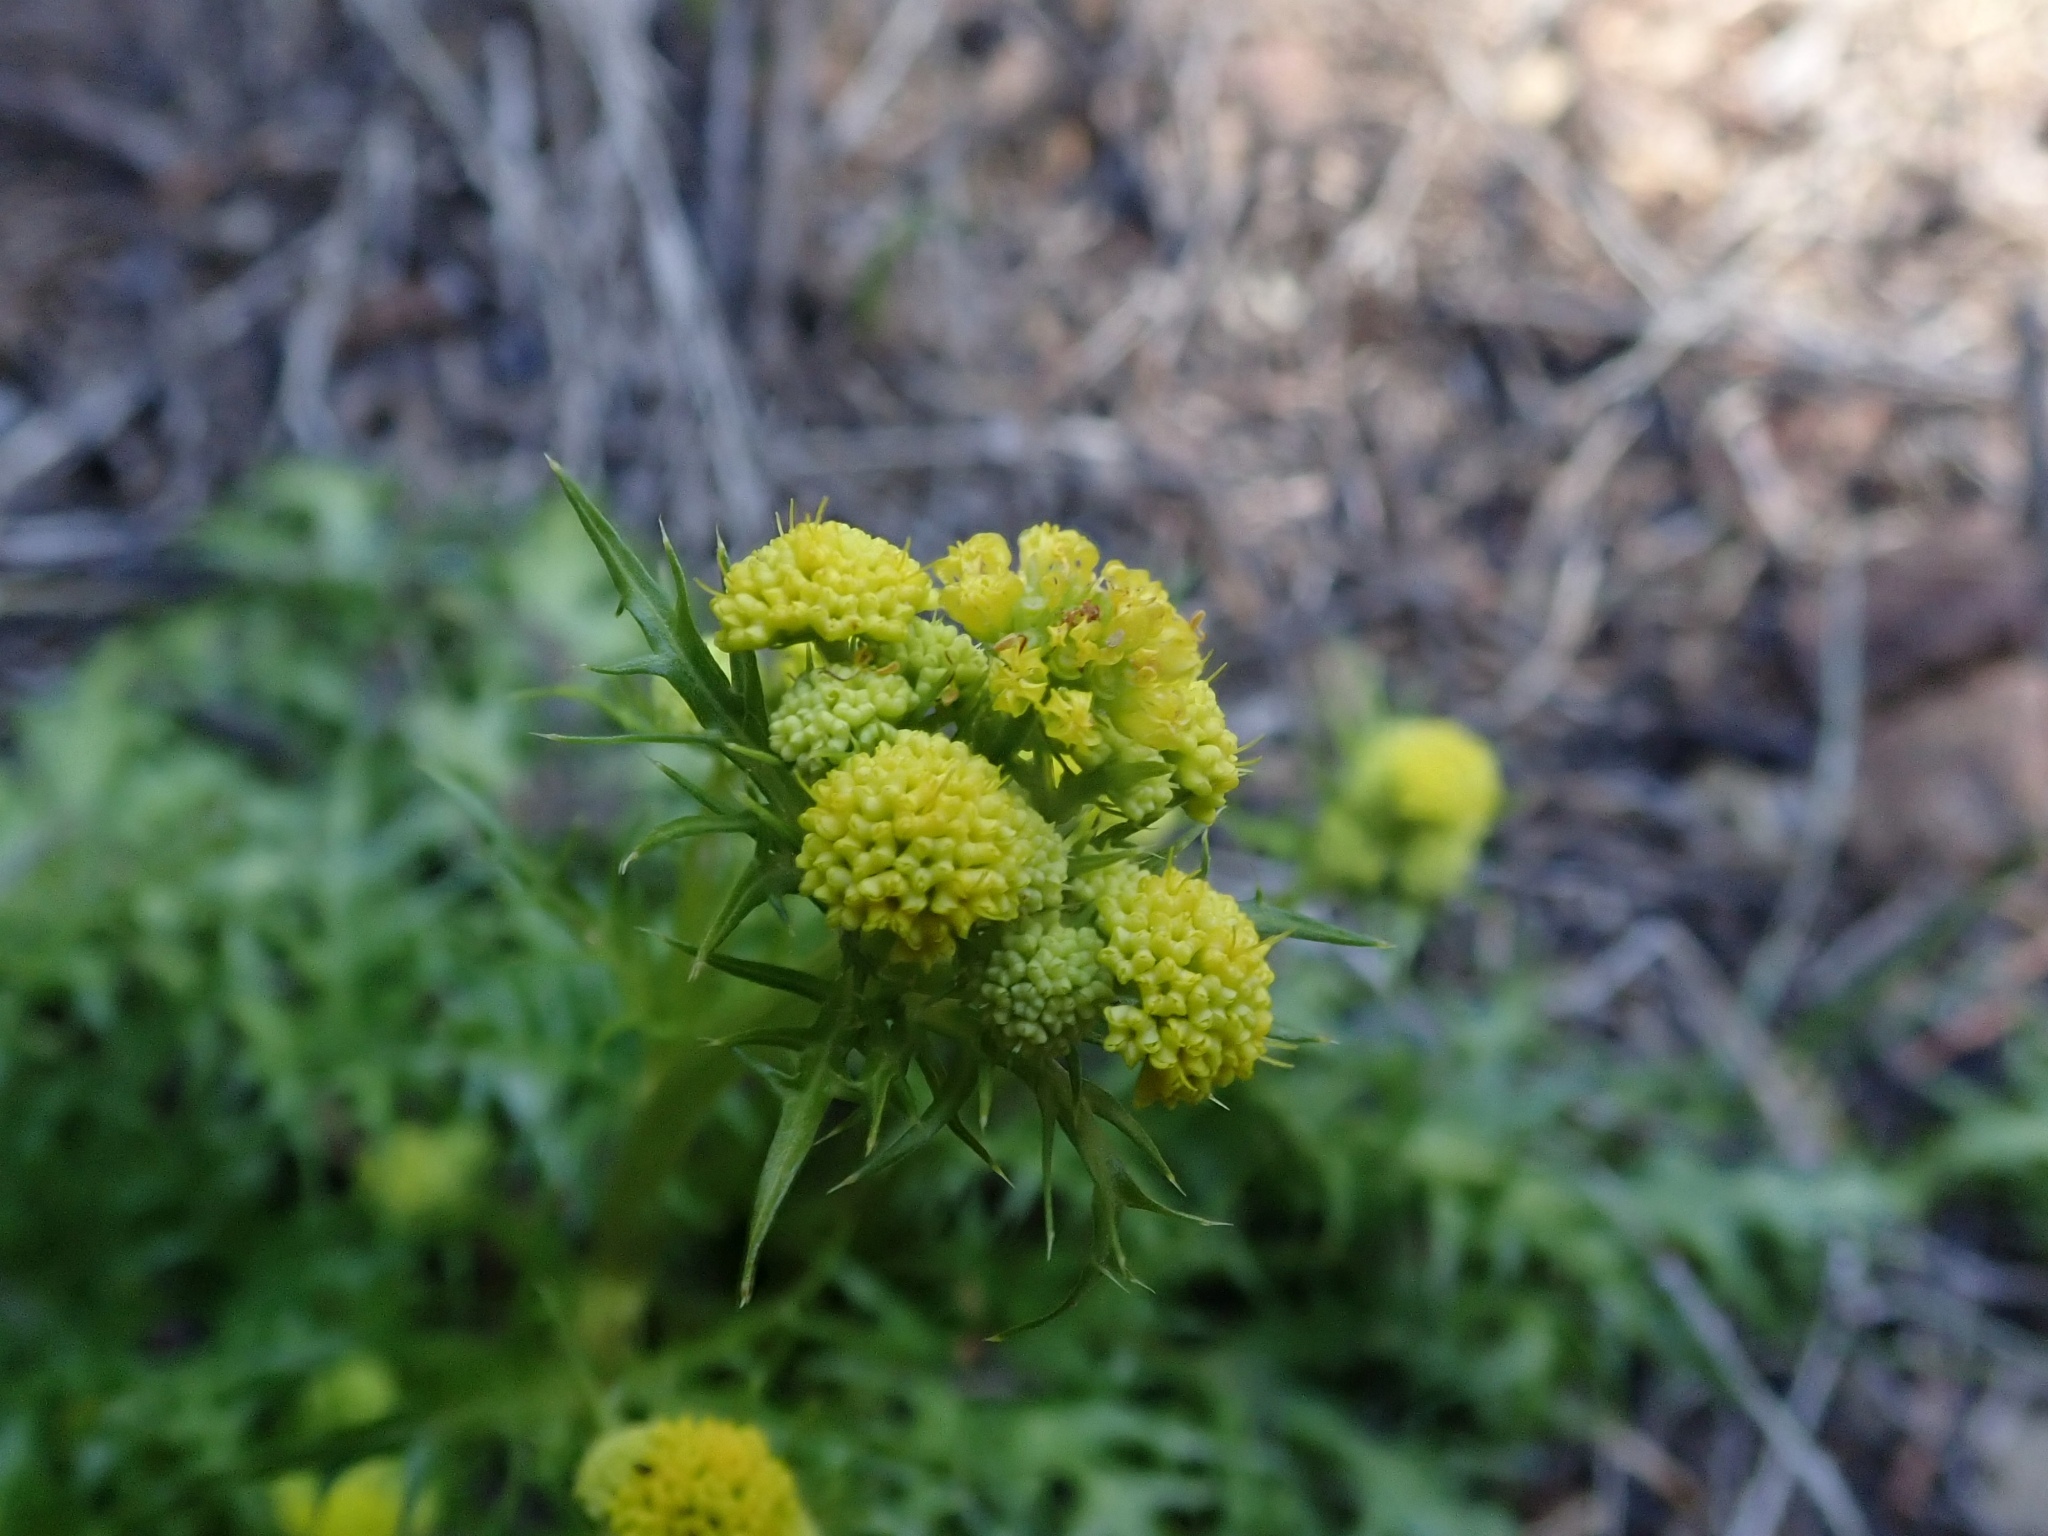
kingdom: Plantae
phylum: Tracheophyta
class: Magnoliopsida
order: Apiales
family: Apiaceae
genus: Sanicula
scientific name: Sanicula laciniata
